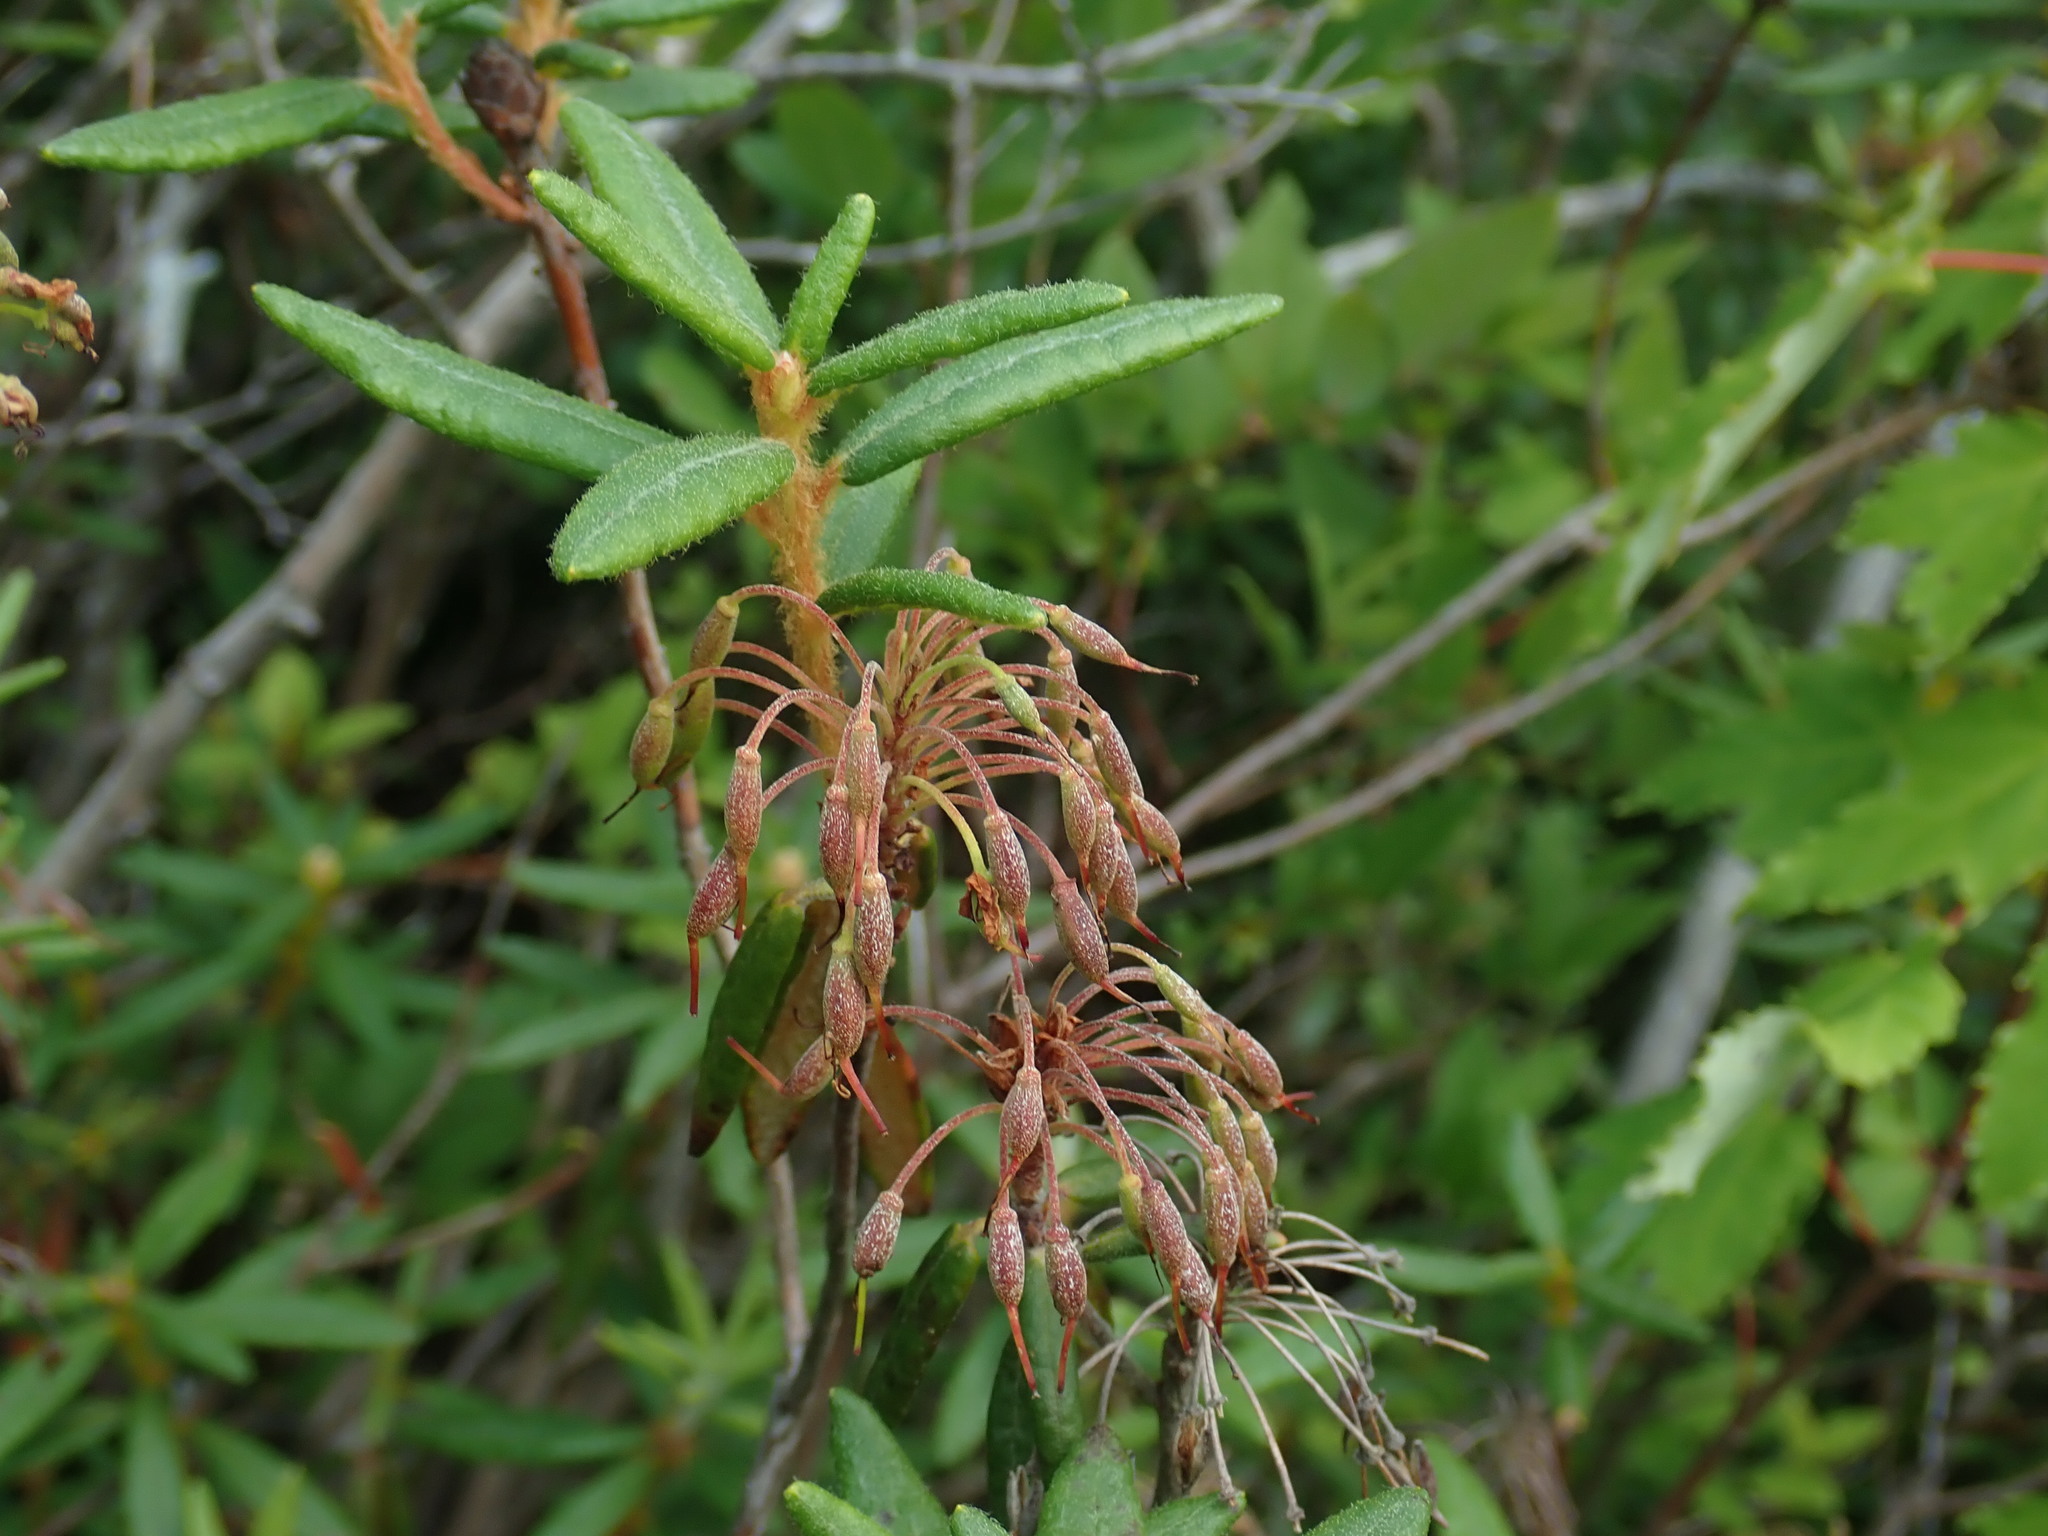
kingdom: Plantae
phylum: Tracheophyta
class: Magnoliopsida
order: Ericales
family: Ericaceae
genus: Rhododendron
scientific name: Rhododendron groenlandicum
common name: Bog labrador tea
